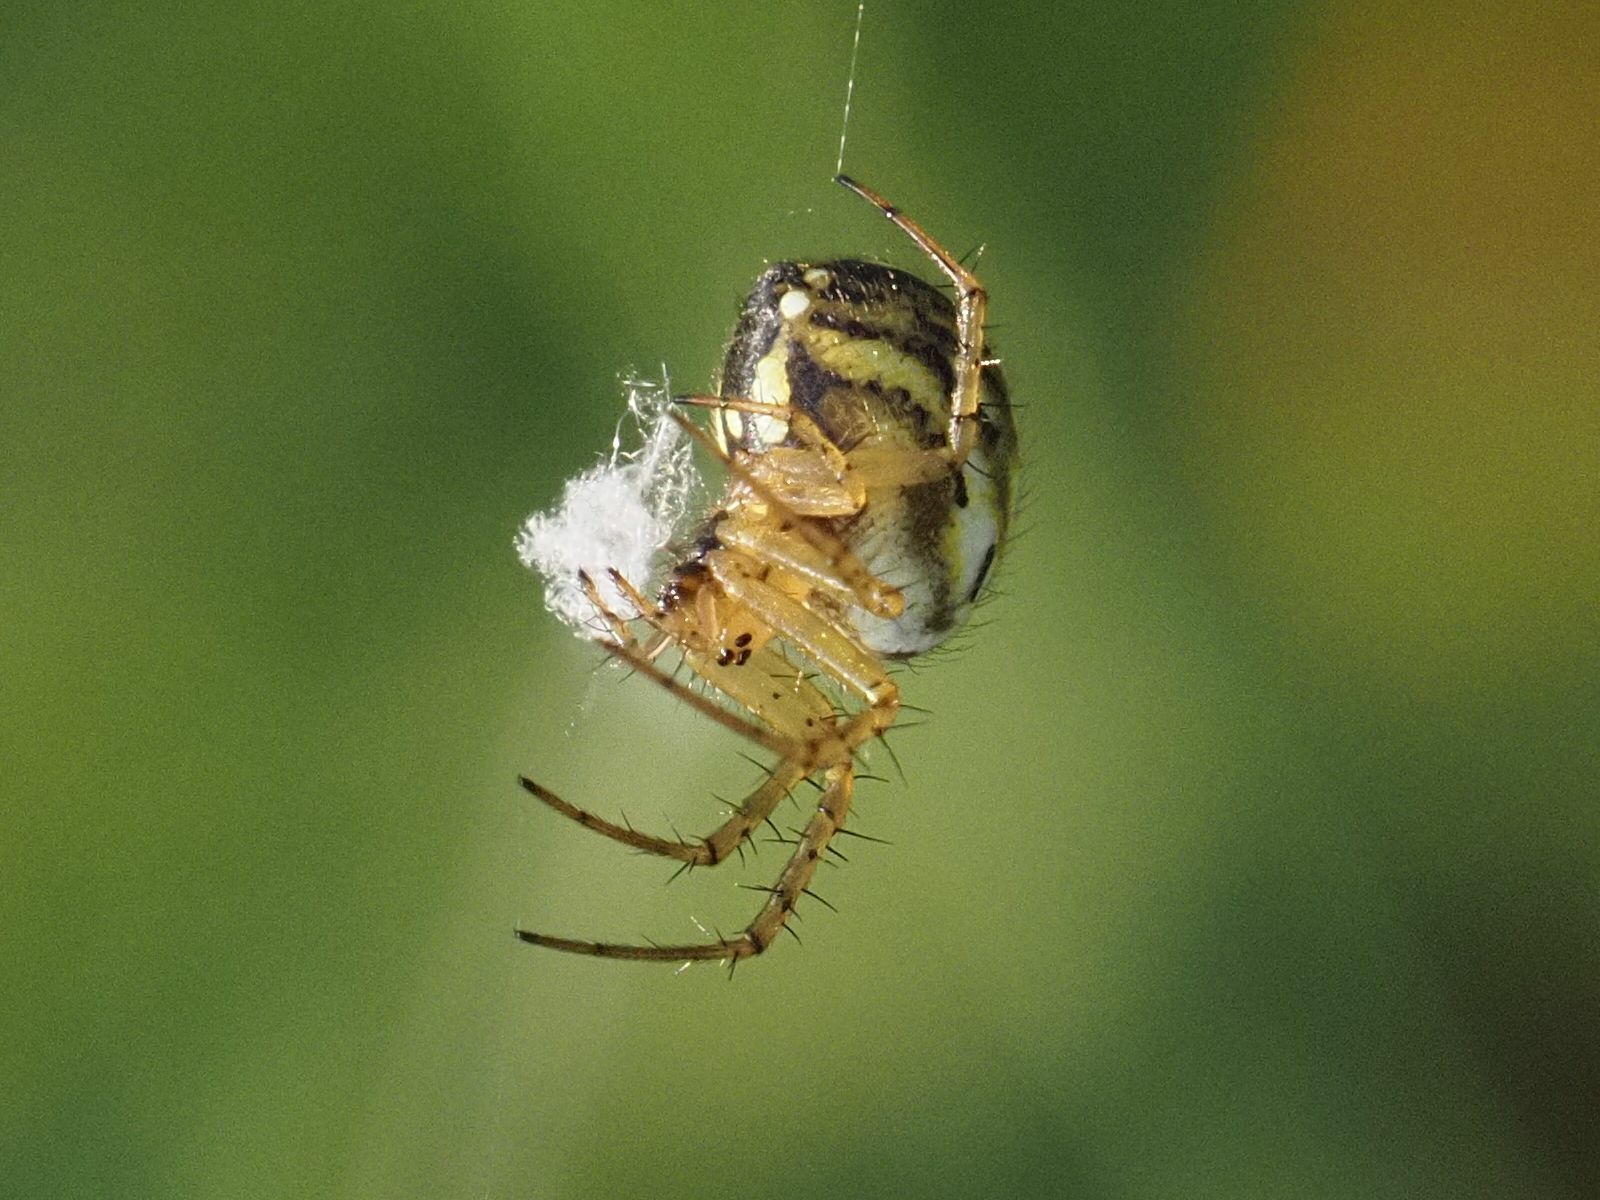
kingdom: Animalia
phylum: Arthropoda
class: Arachnida
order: Araneae
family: Araneidae
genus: Mangora
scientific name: Mangora acalypha
